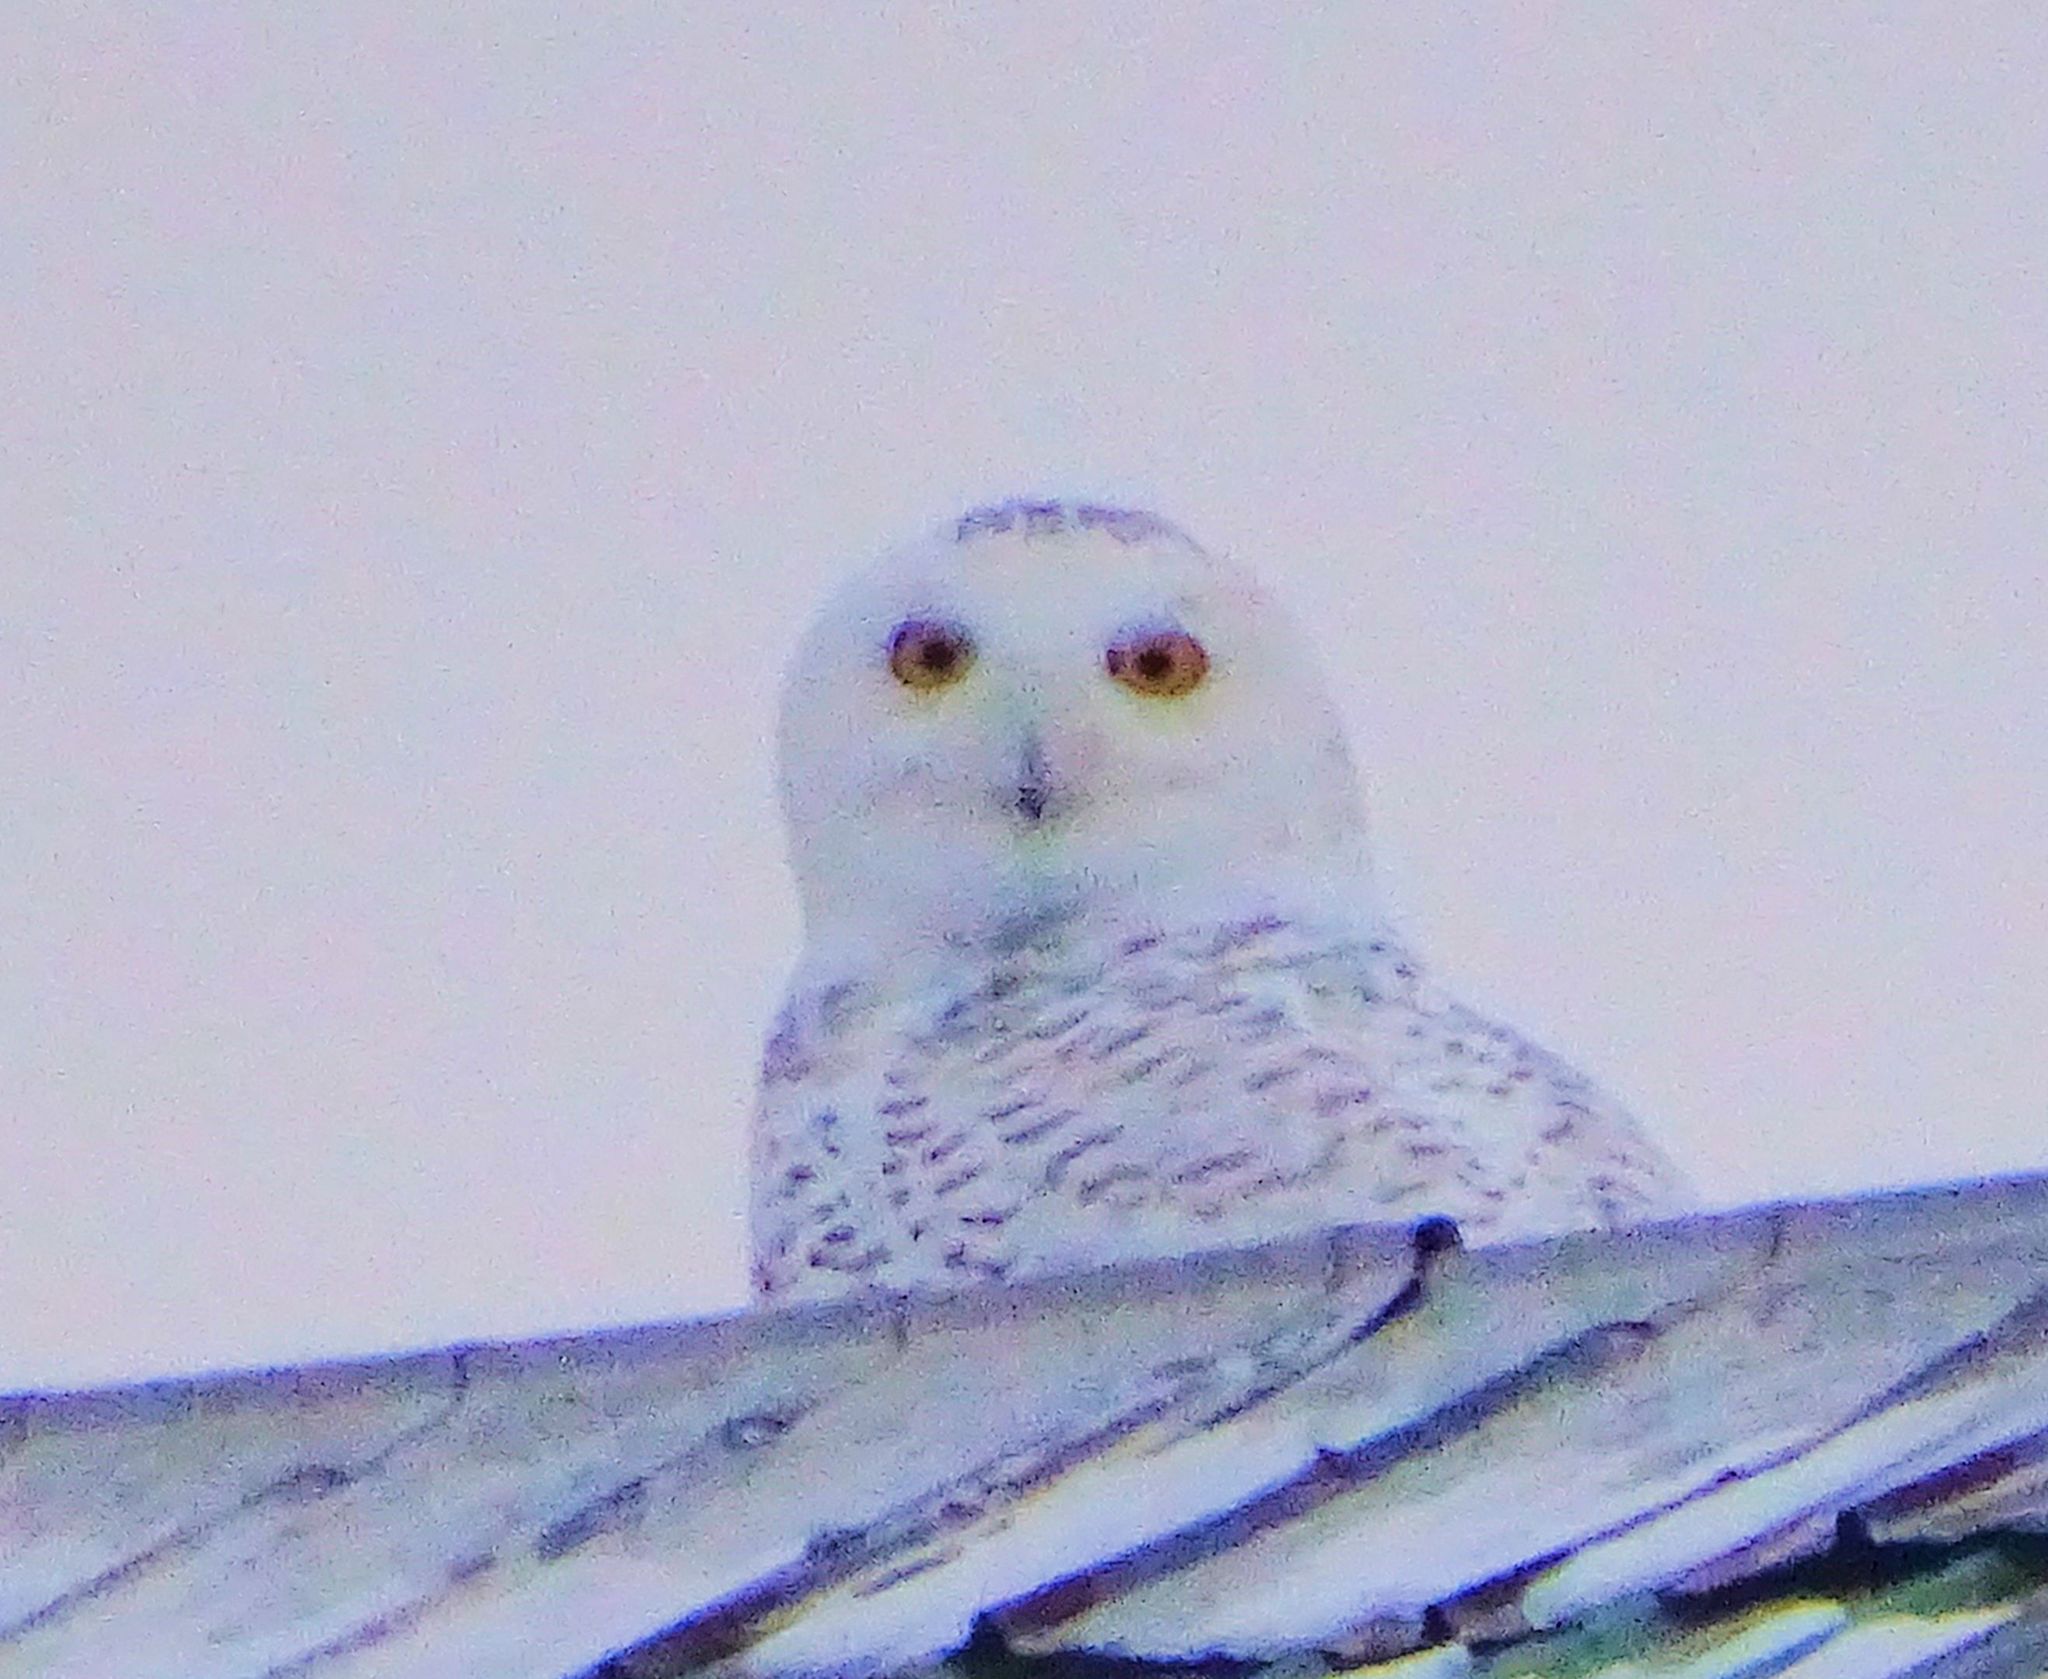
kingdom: Animalia
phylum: Chordata
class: Aves
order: Strigiformes
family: Strigidae
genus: Bubo
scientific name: Bubo scandiacus
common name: Snowy owl
